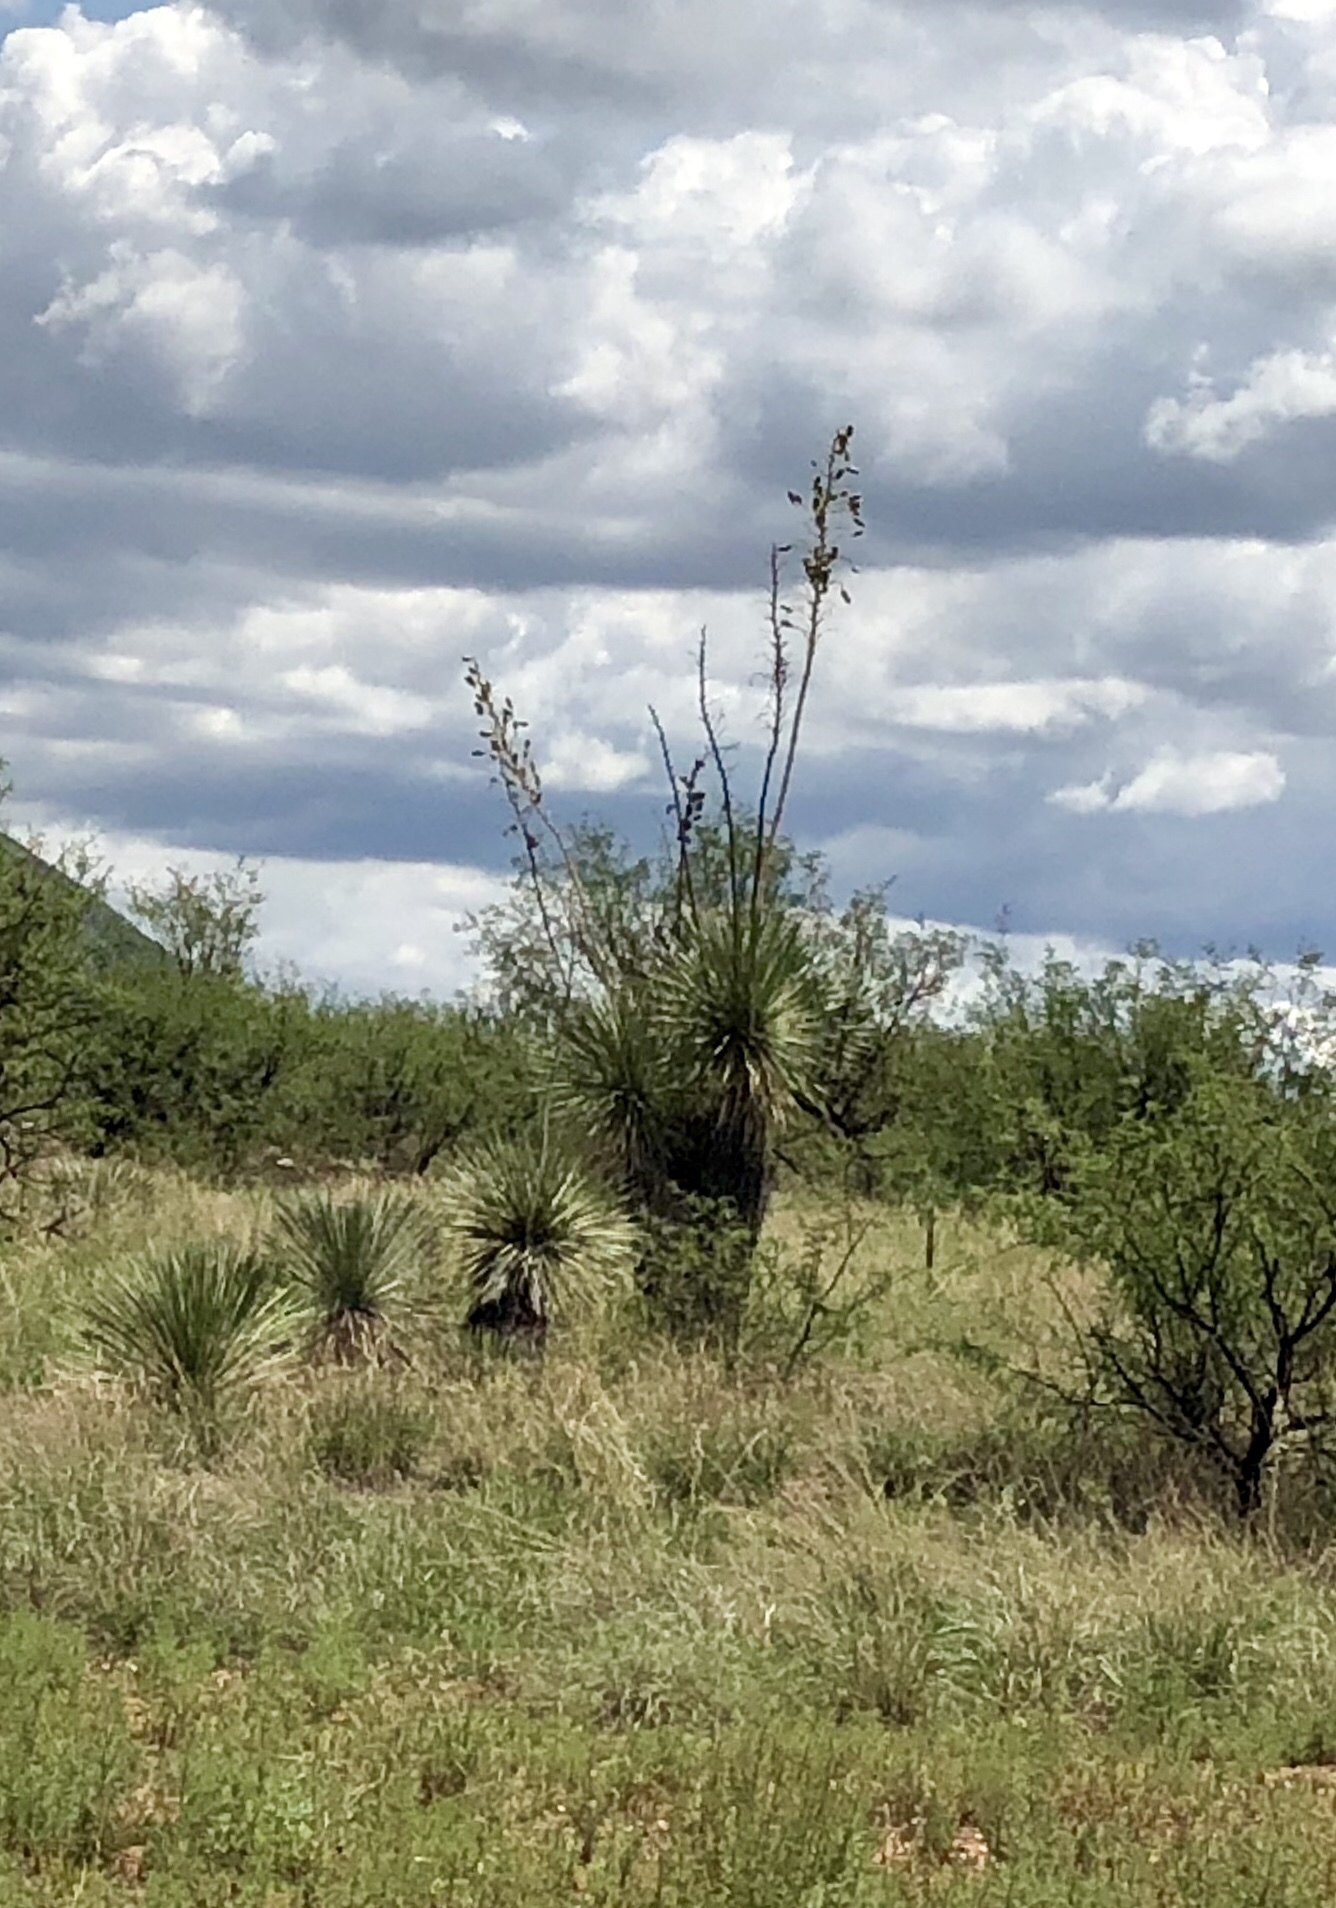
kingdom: Plantae
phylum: Tracheophyta
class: Liliopsida
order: Asparagales
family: Asparagaceae
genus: Yucca
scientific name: Yucca elata
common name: Palmella
